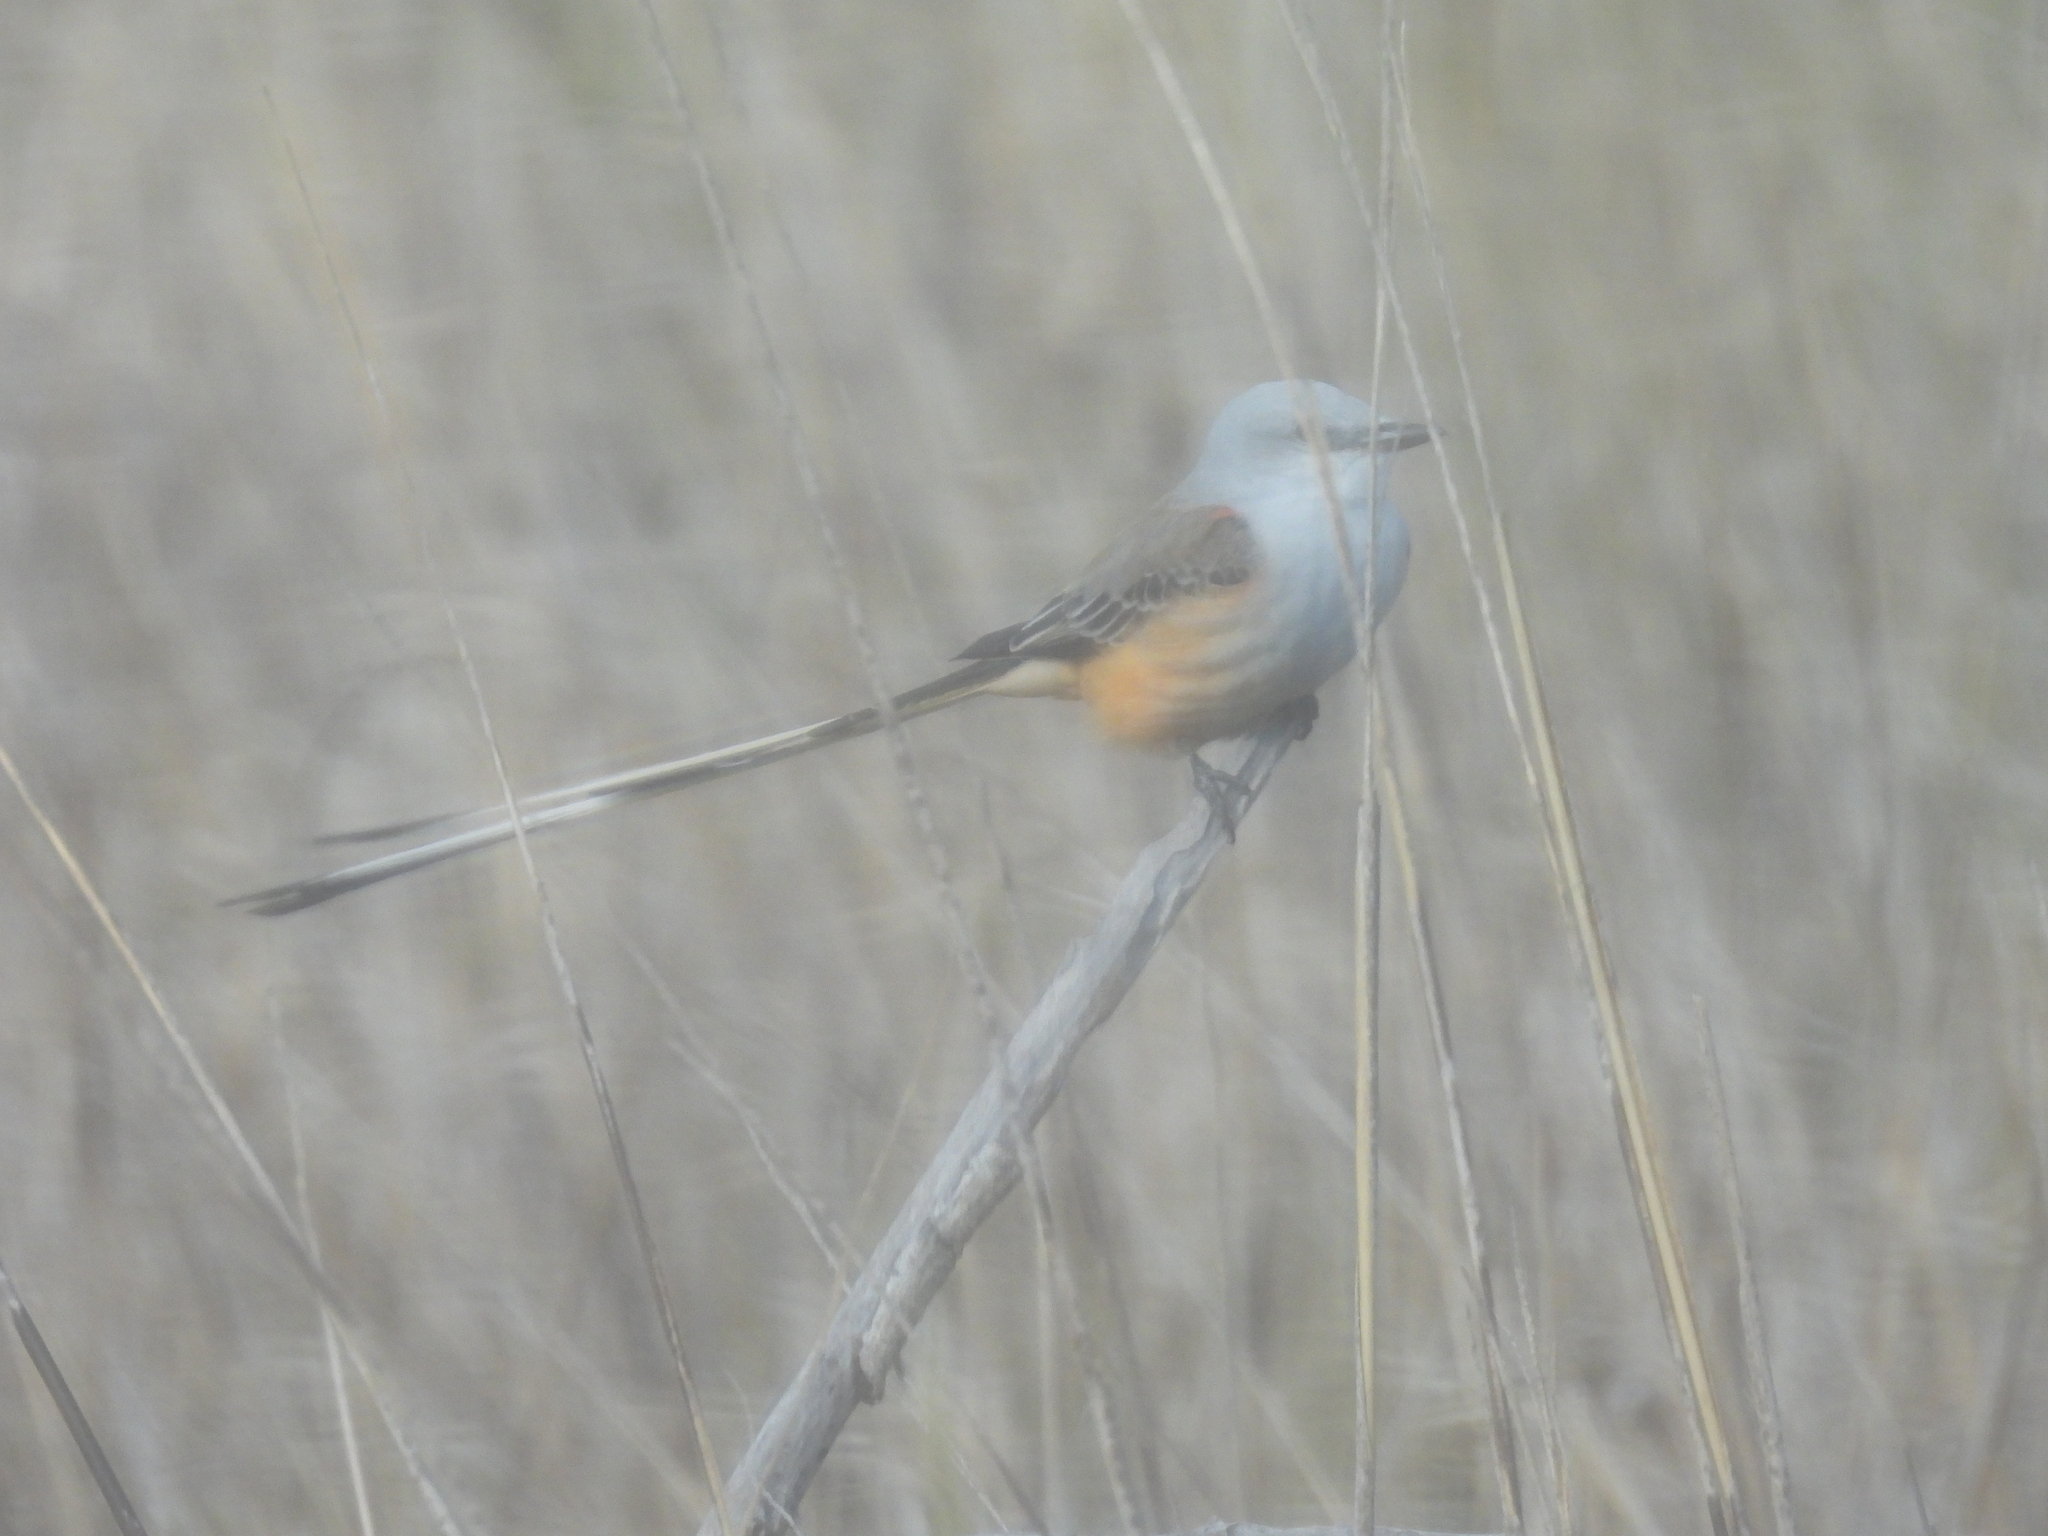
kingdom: Animalia
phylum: Chordata
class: Aves
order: Passeriformes
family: Tyrannidae
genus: Tyrannus
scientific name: Tyrannus forficatus
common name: Scissor-tailed flycatcher
